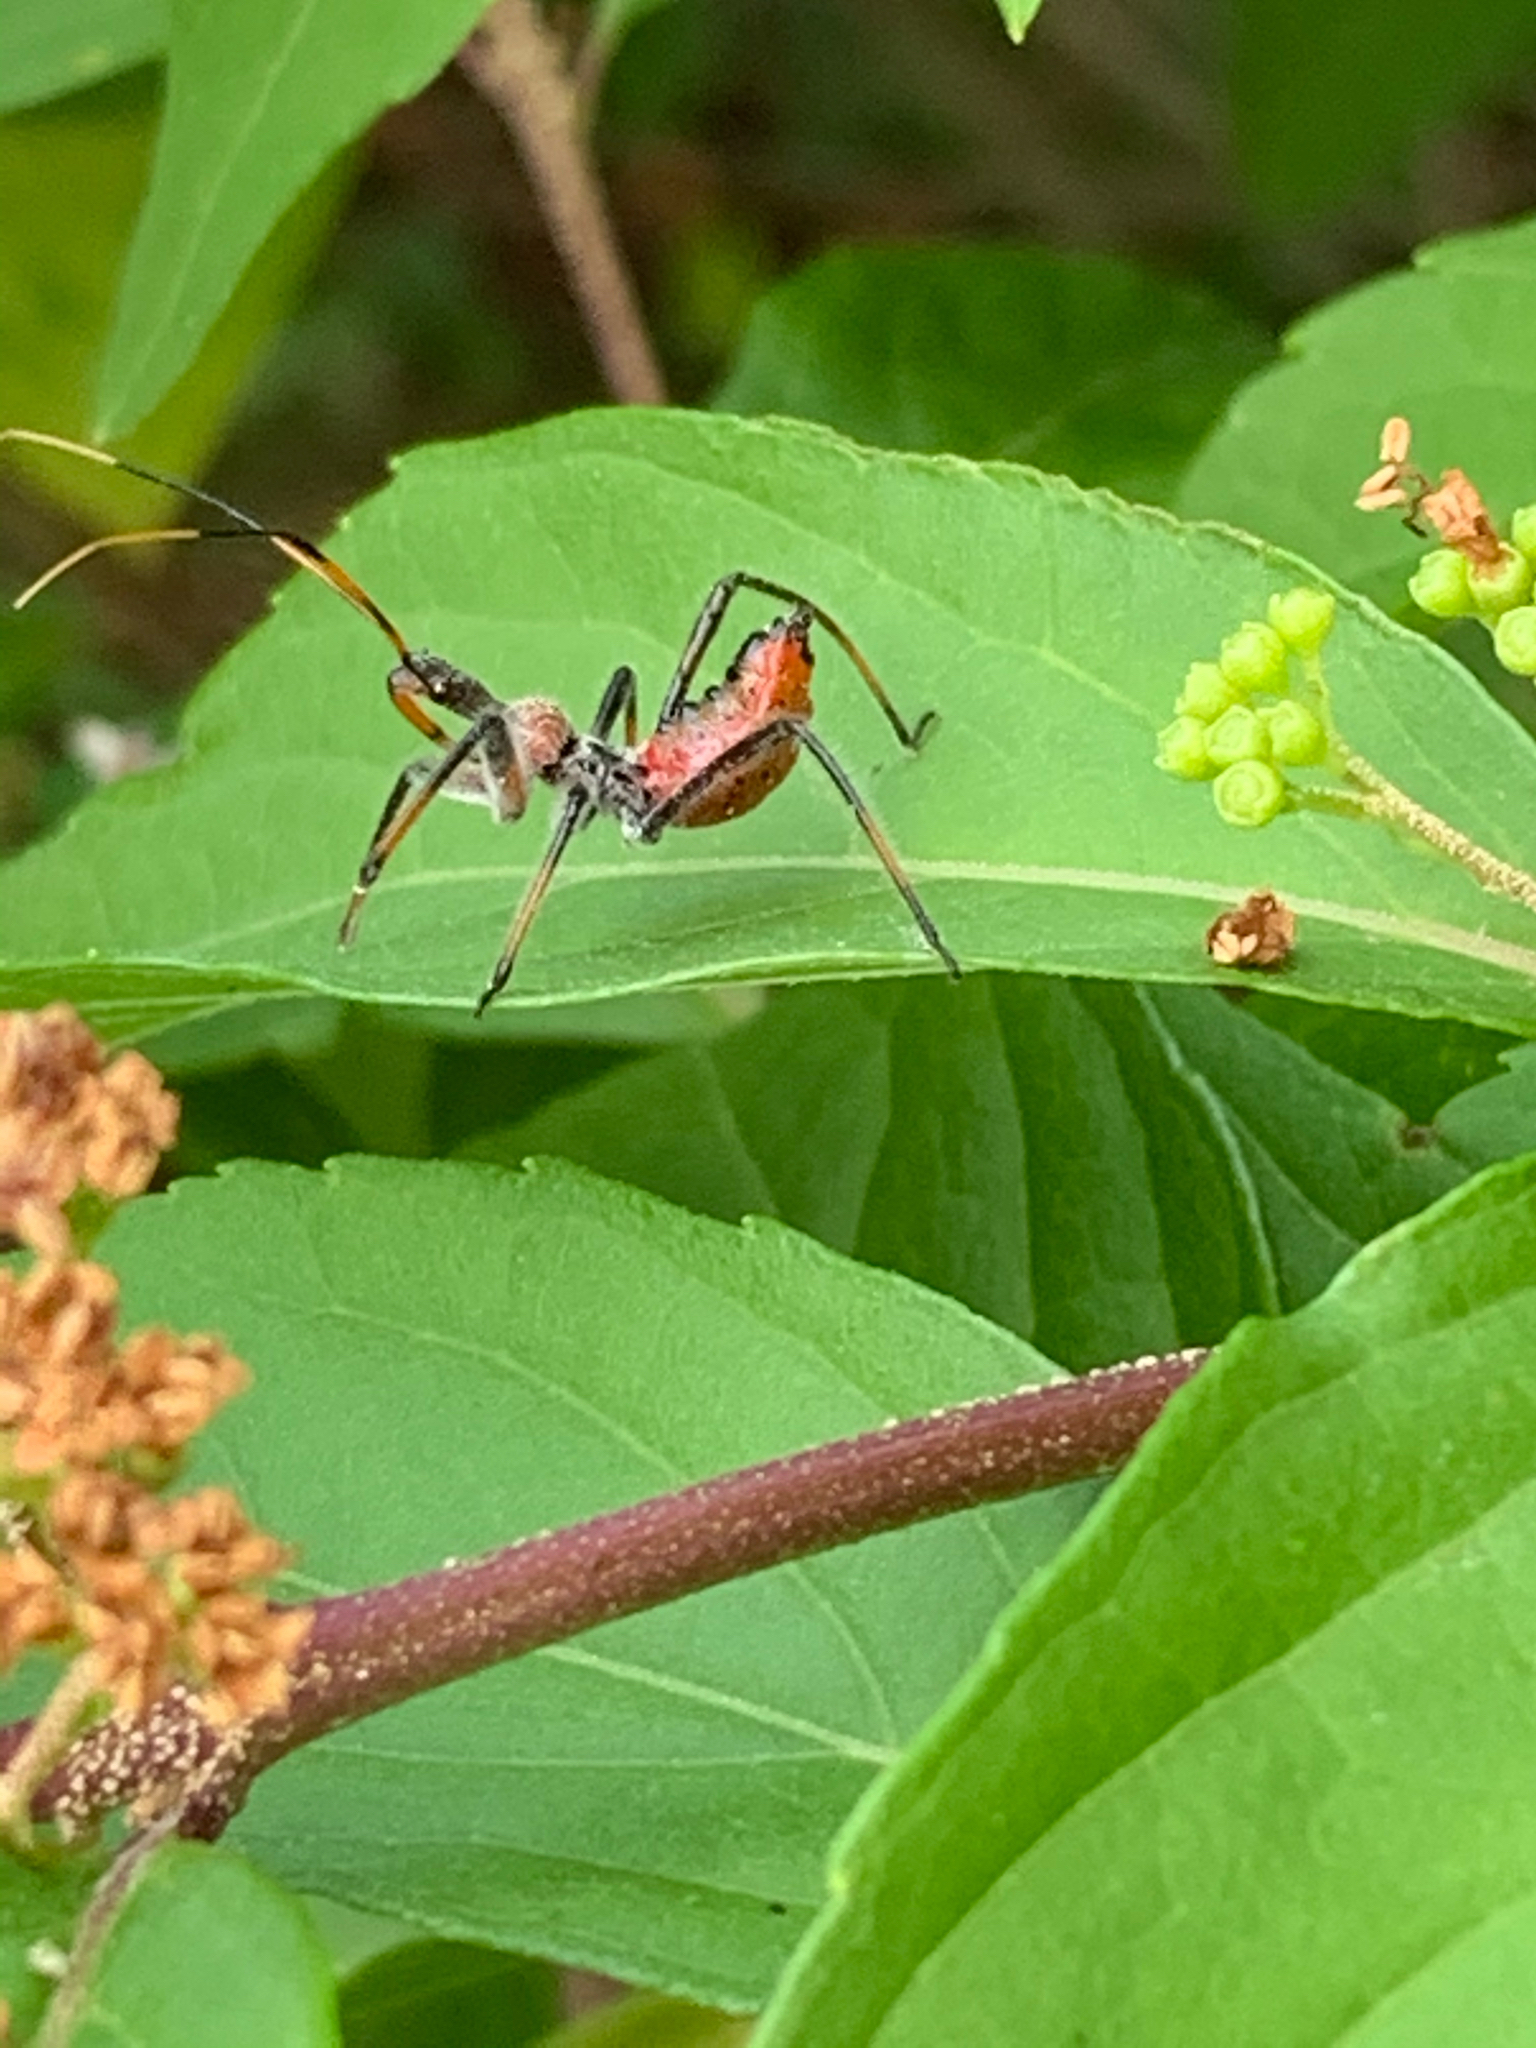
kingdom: Animalia
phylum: Arthropoda
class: Insecta
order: Hemiptera
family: Reduviidae
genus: Arilus
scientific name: Arilus cristatus
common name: North american wheel bug
